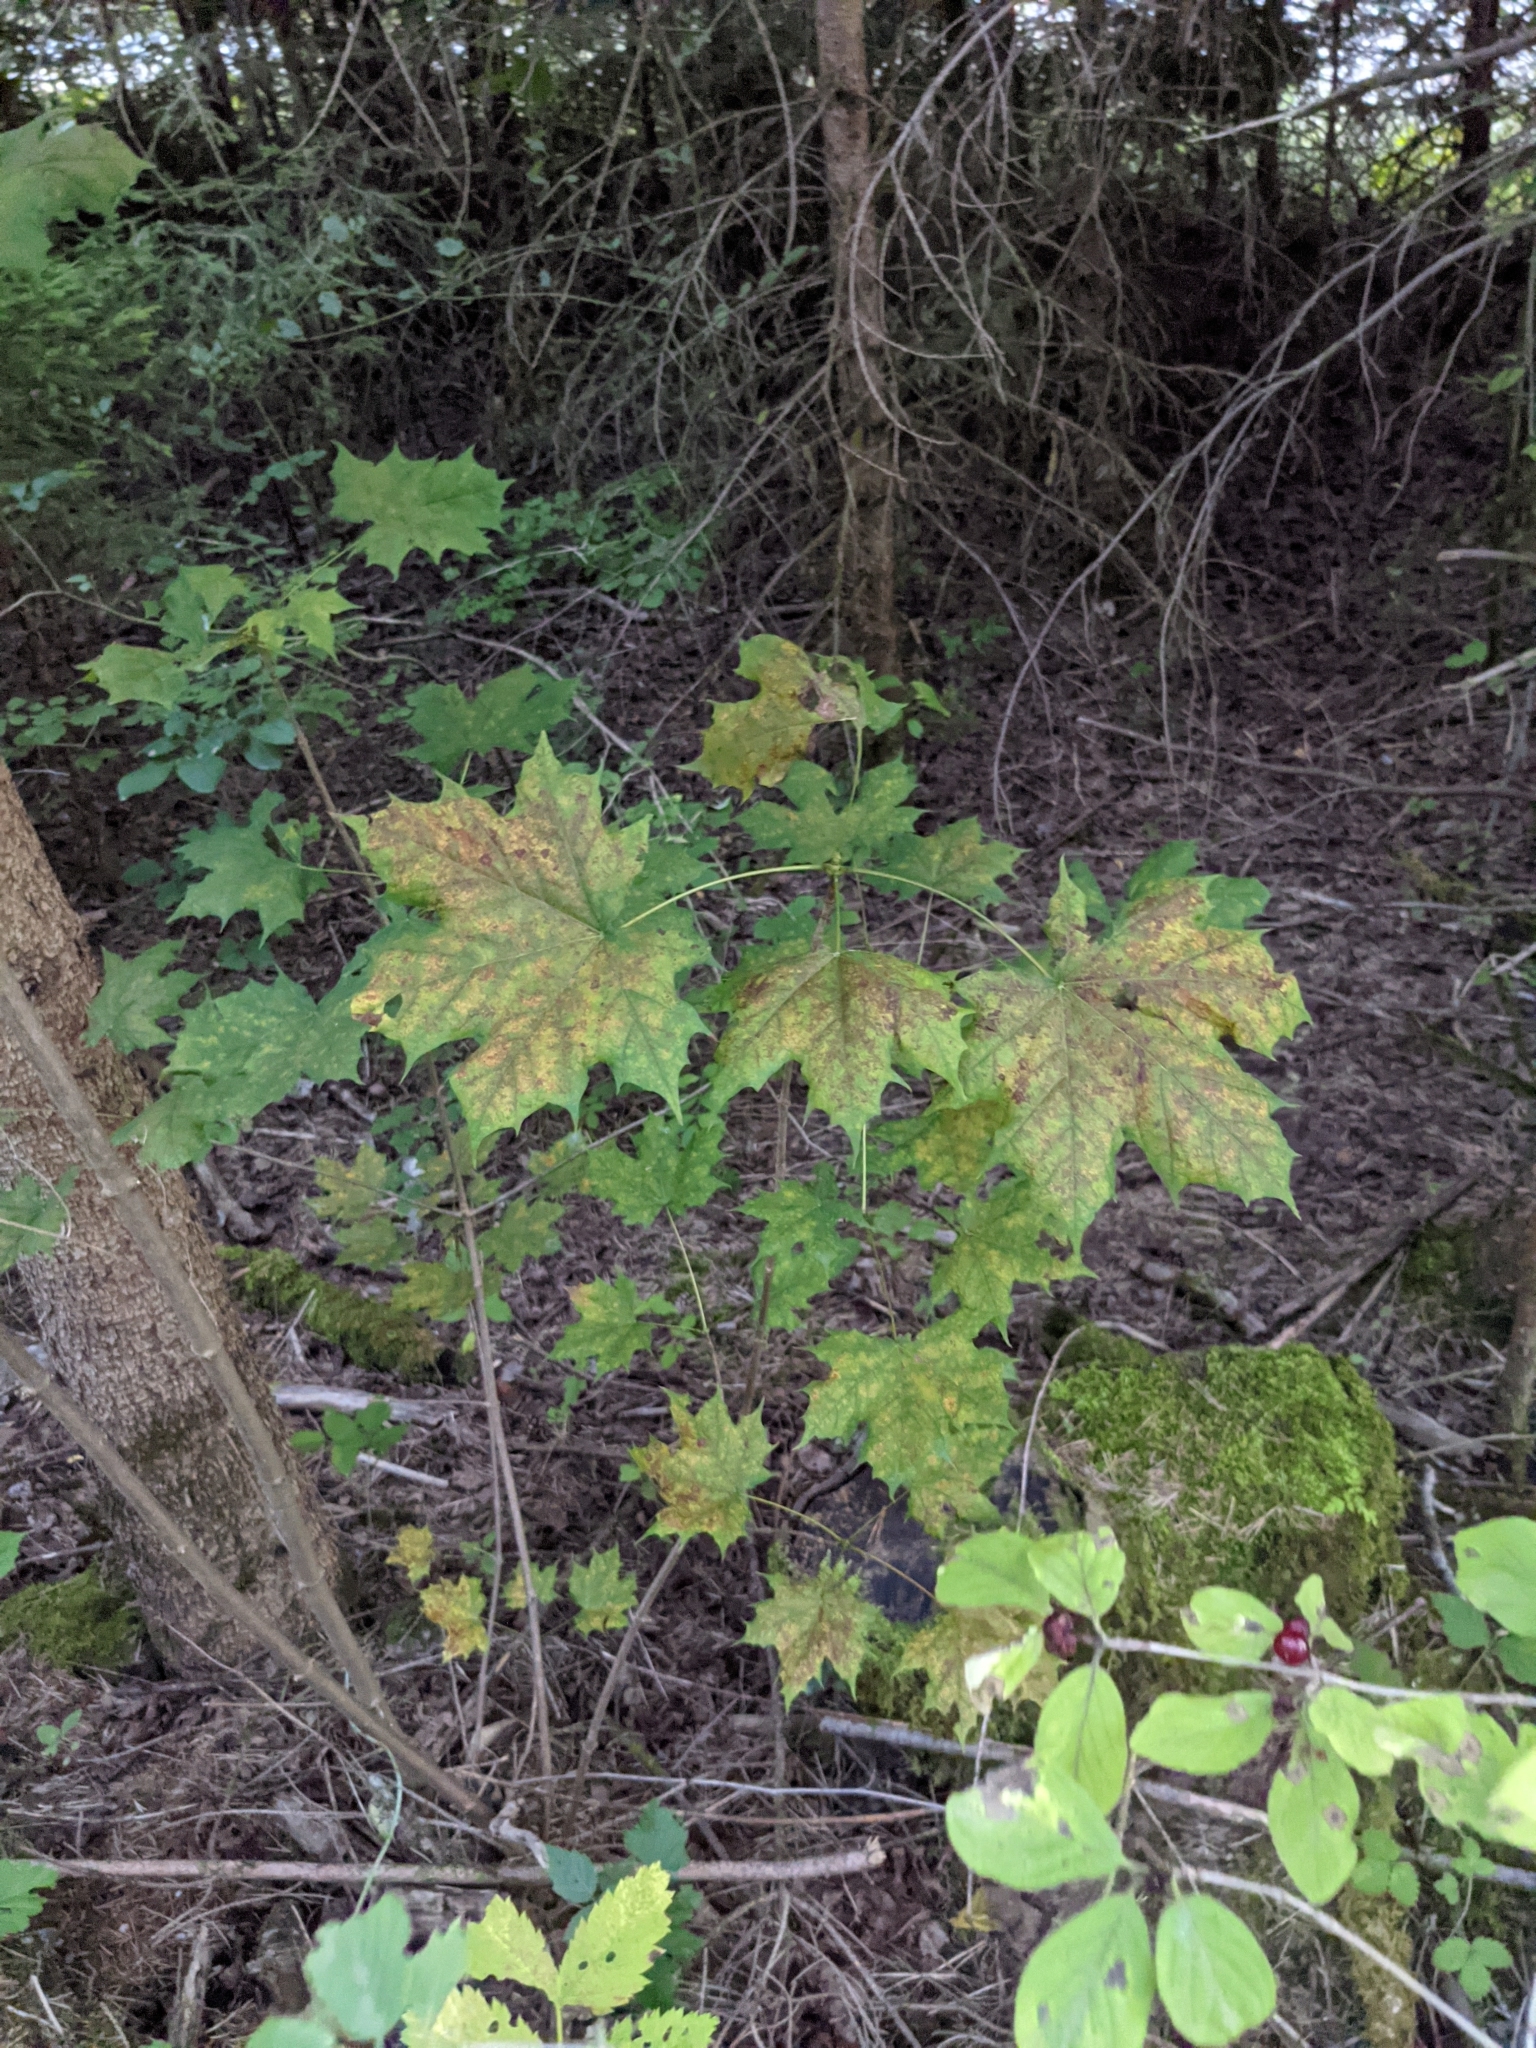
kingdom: Plantae
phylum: Tracheophyta
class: Magnoliopsida
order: Sapindales
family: Sapindaceae
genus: Acer
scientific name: Acer platanoides
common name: Norway maple
